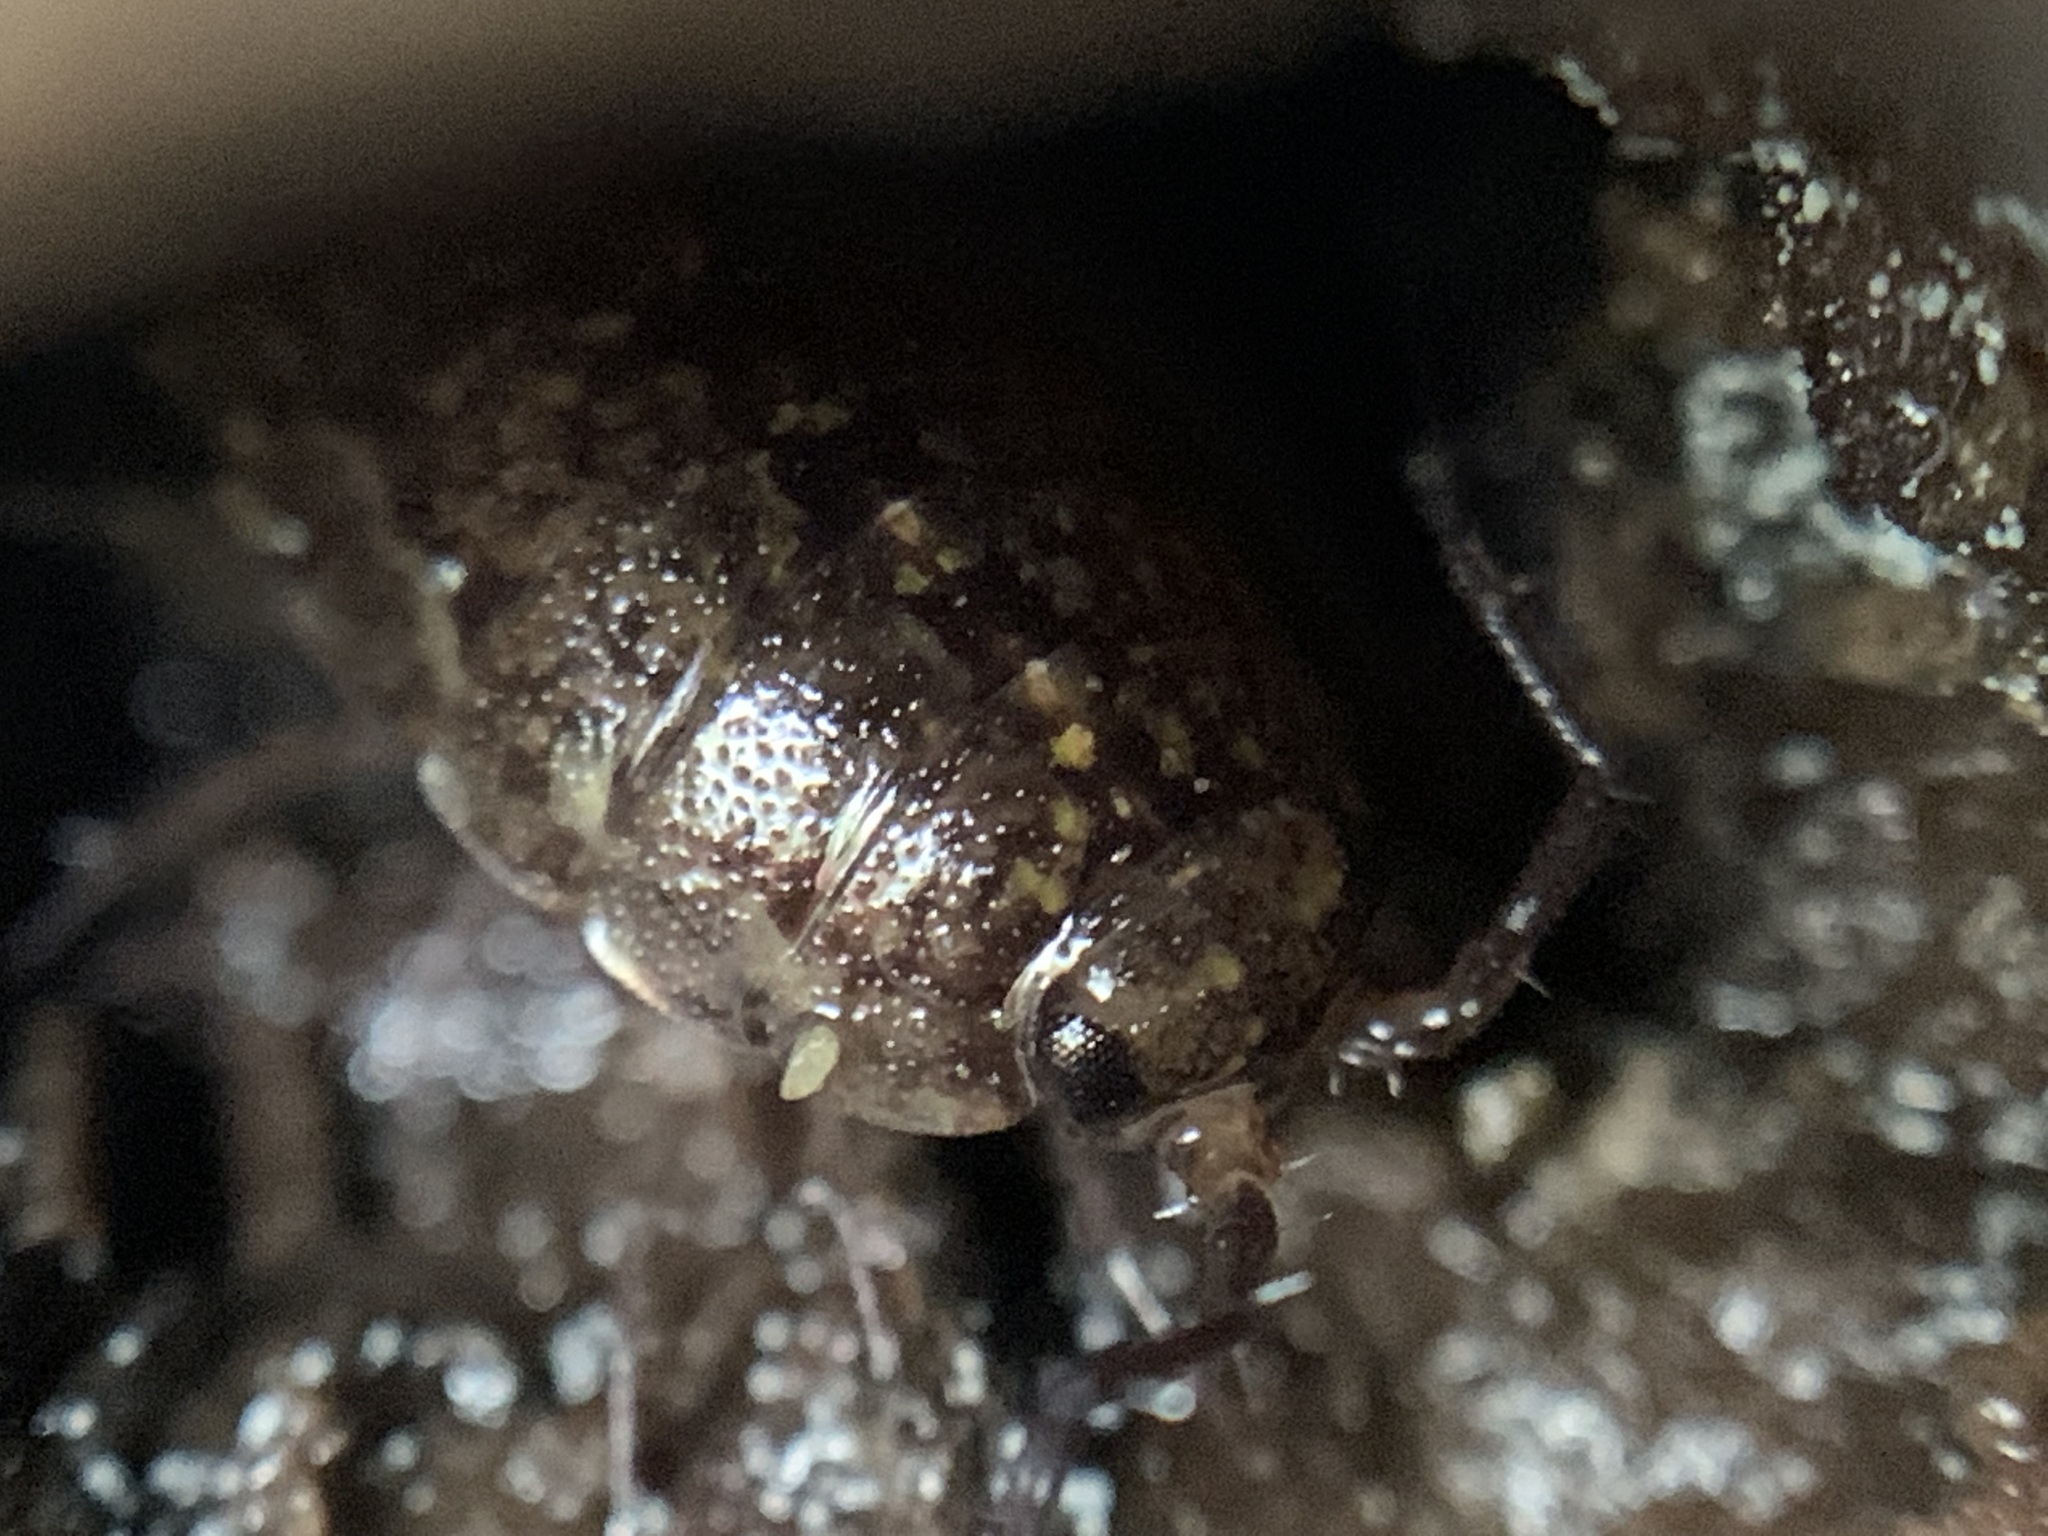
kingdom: Animalia
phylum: Arthropoda
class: Malacostraca
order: Isopoda
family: Ligiidae
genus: Ligidium
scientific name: Ligidium latum
